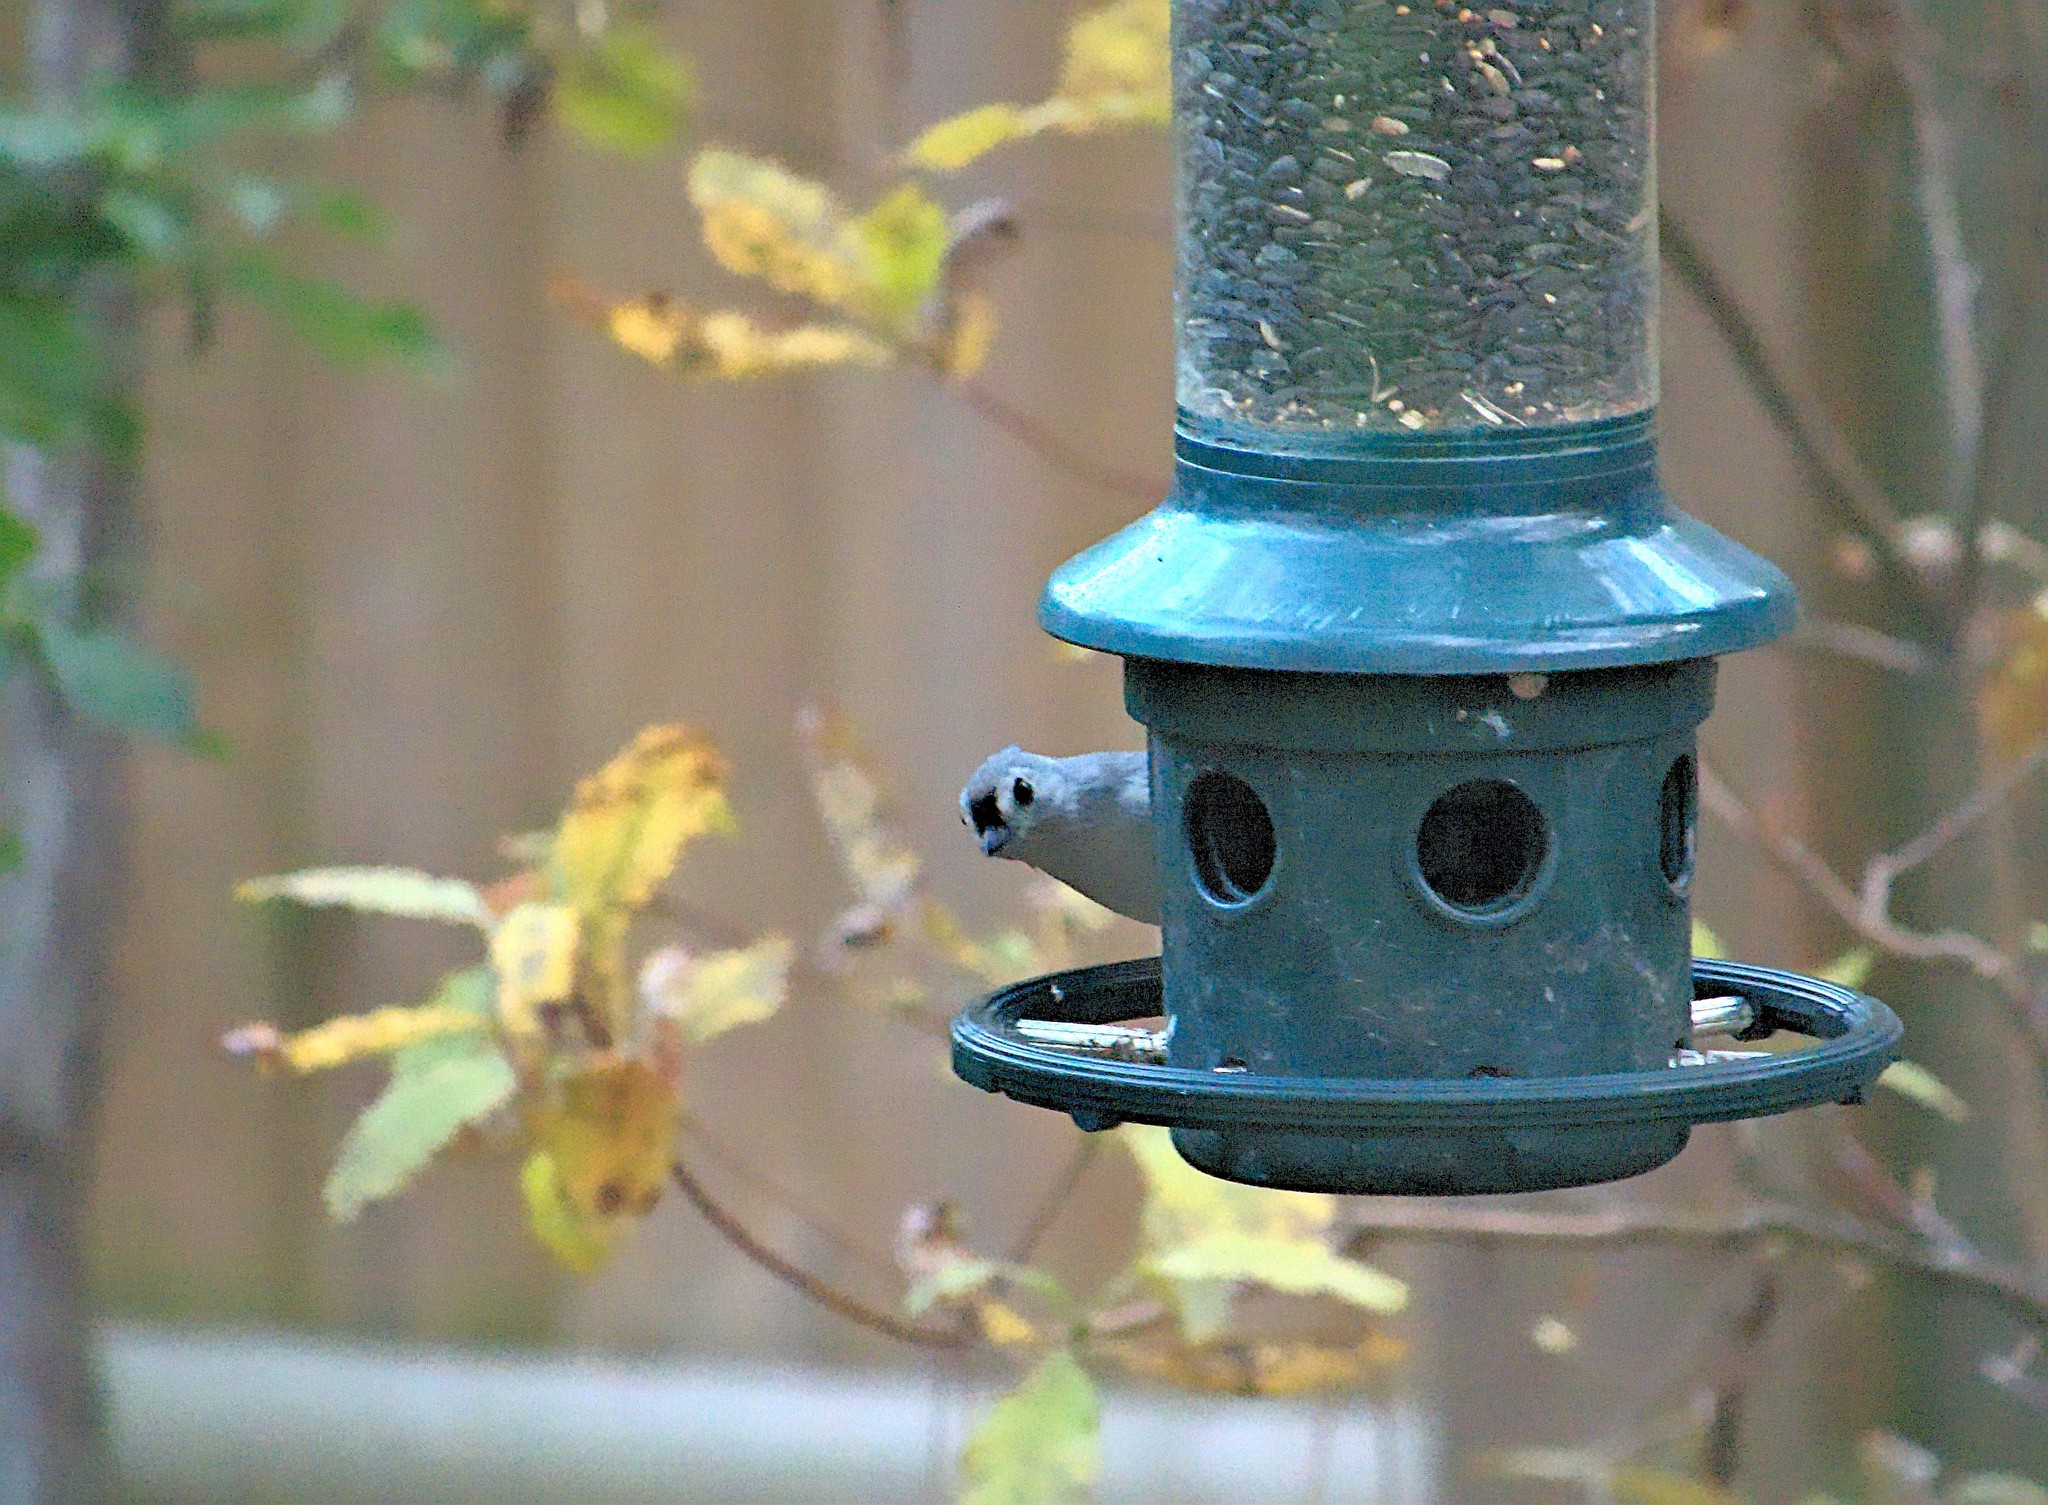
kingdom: Animalia
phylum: Chordata
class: Aves
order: Passeriformes
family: Paridae
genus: Baeolophus
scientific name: Baeolophus bicolor
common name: Tufted titmouse
